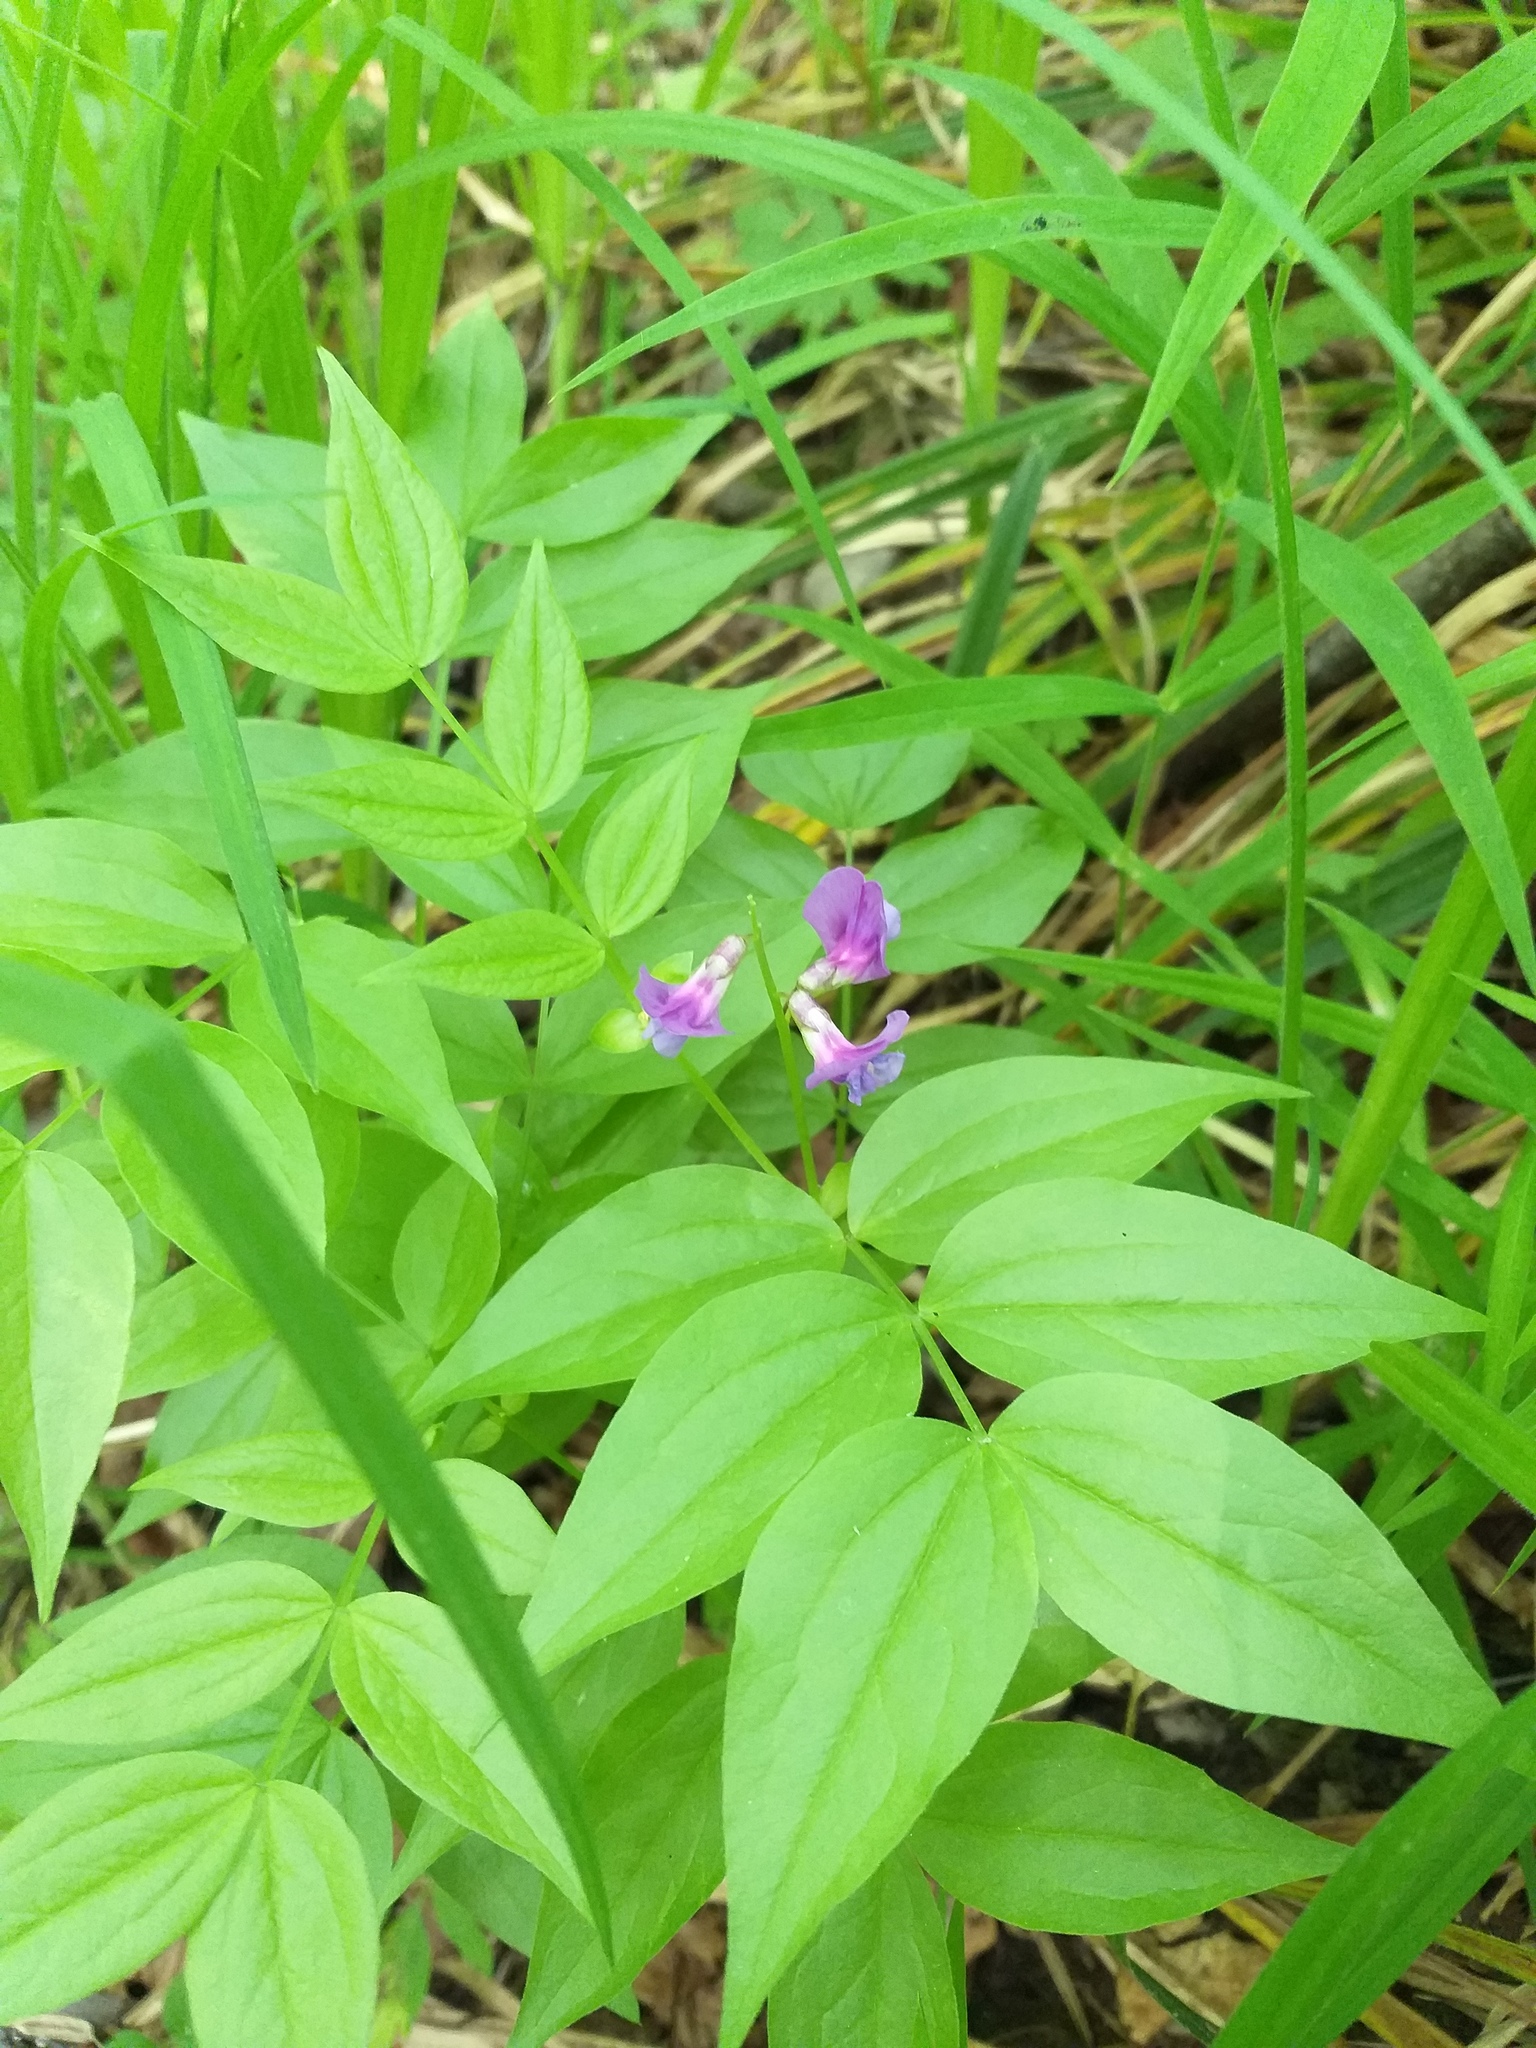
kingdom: Plantae
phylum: Tracheophyta
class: Magnoliopsida
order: Fabales
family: Fabaceae
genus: Lathyrus
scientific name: Lathyrus vernus
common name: Spring pea
